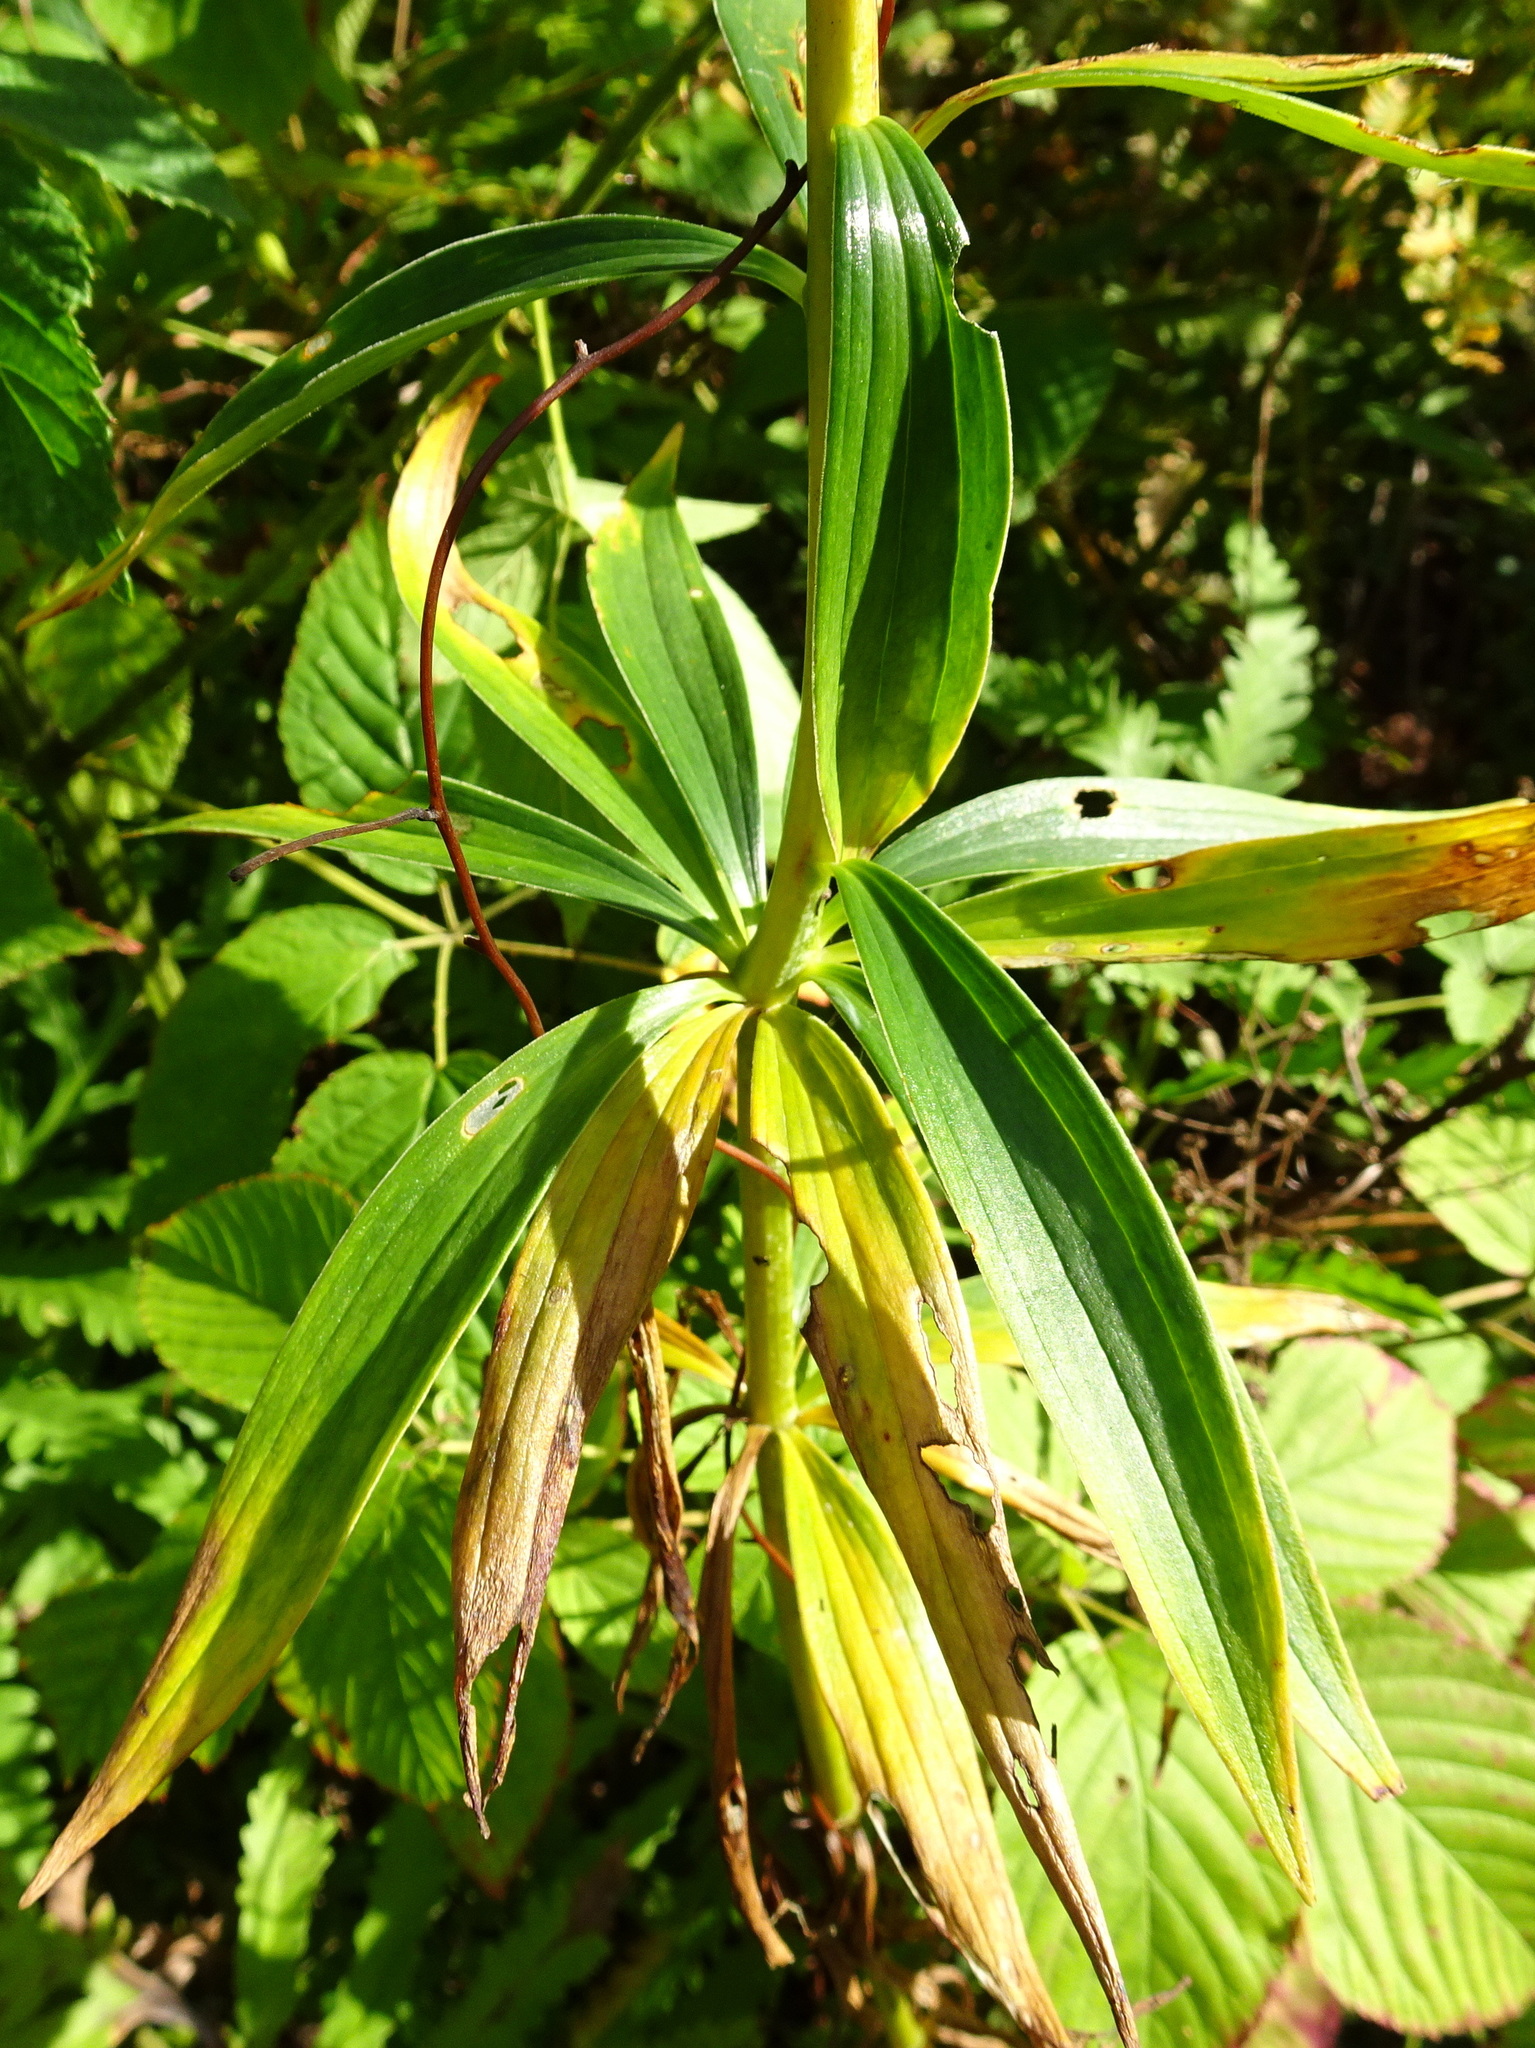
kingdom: Plantae
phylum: Tracheophyta
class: Liliopsida
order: Liliales
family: Liliaceae
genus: Lilium
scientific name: Lilium michiganense
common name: Michigan lily
